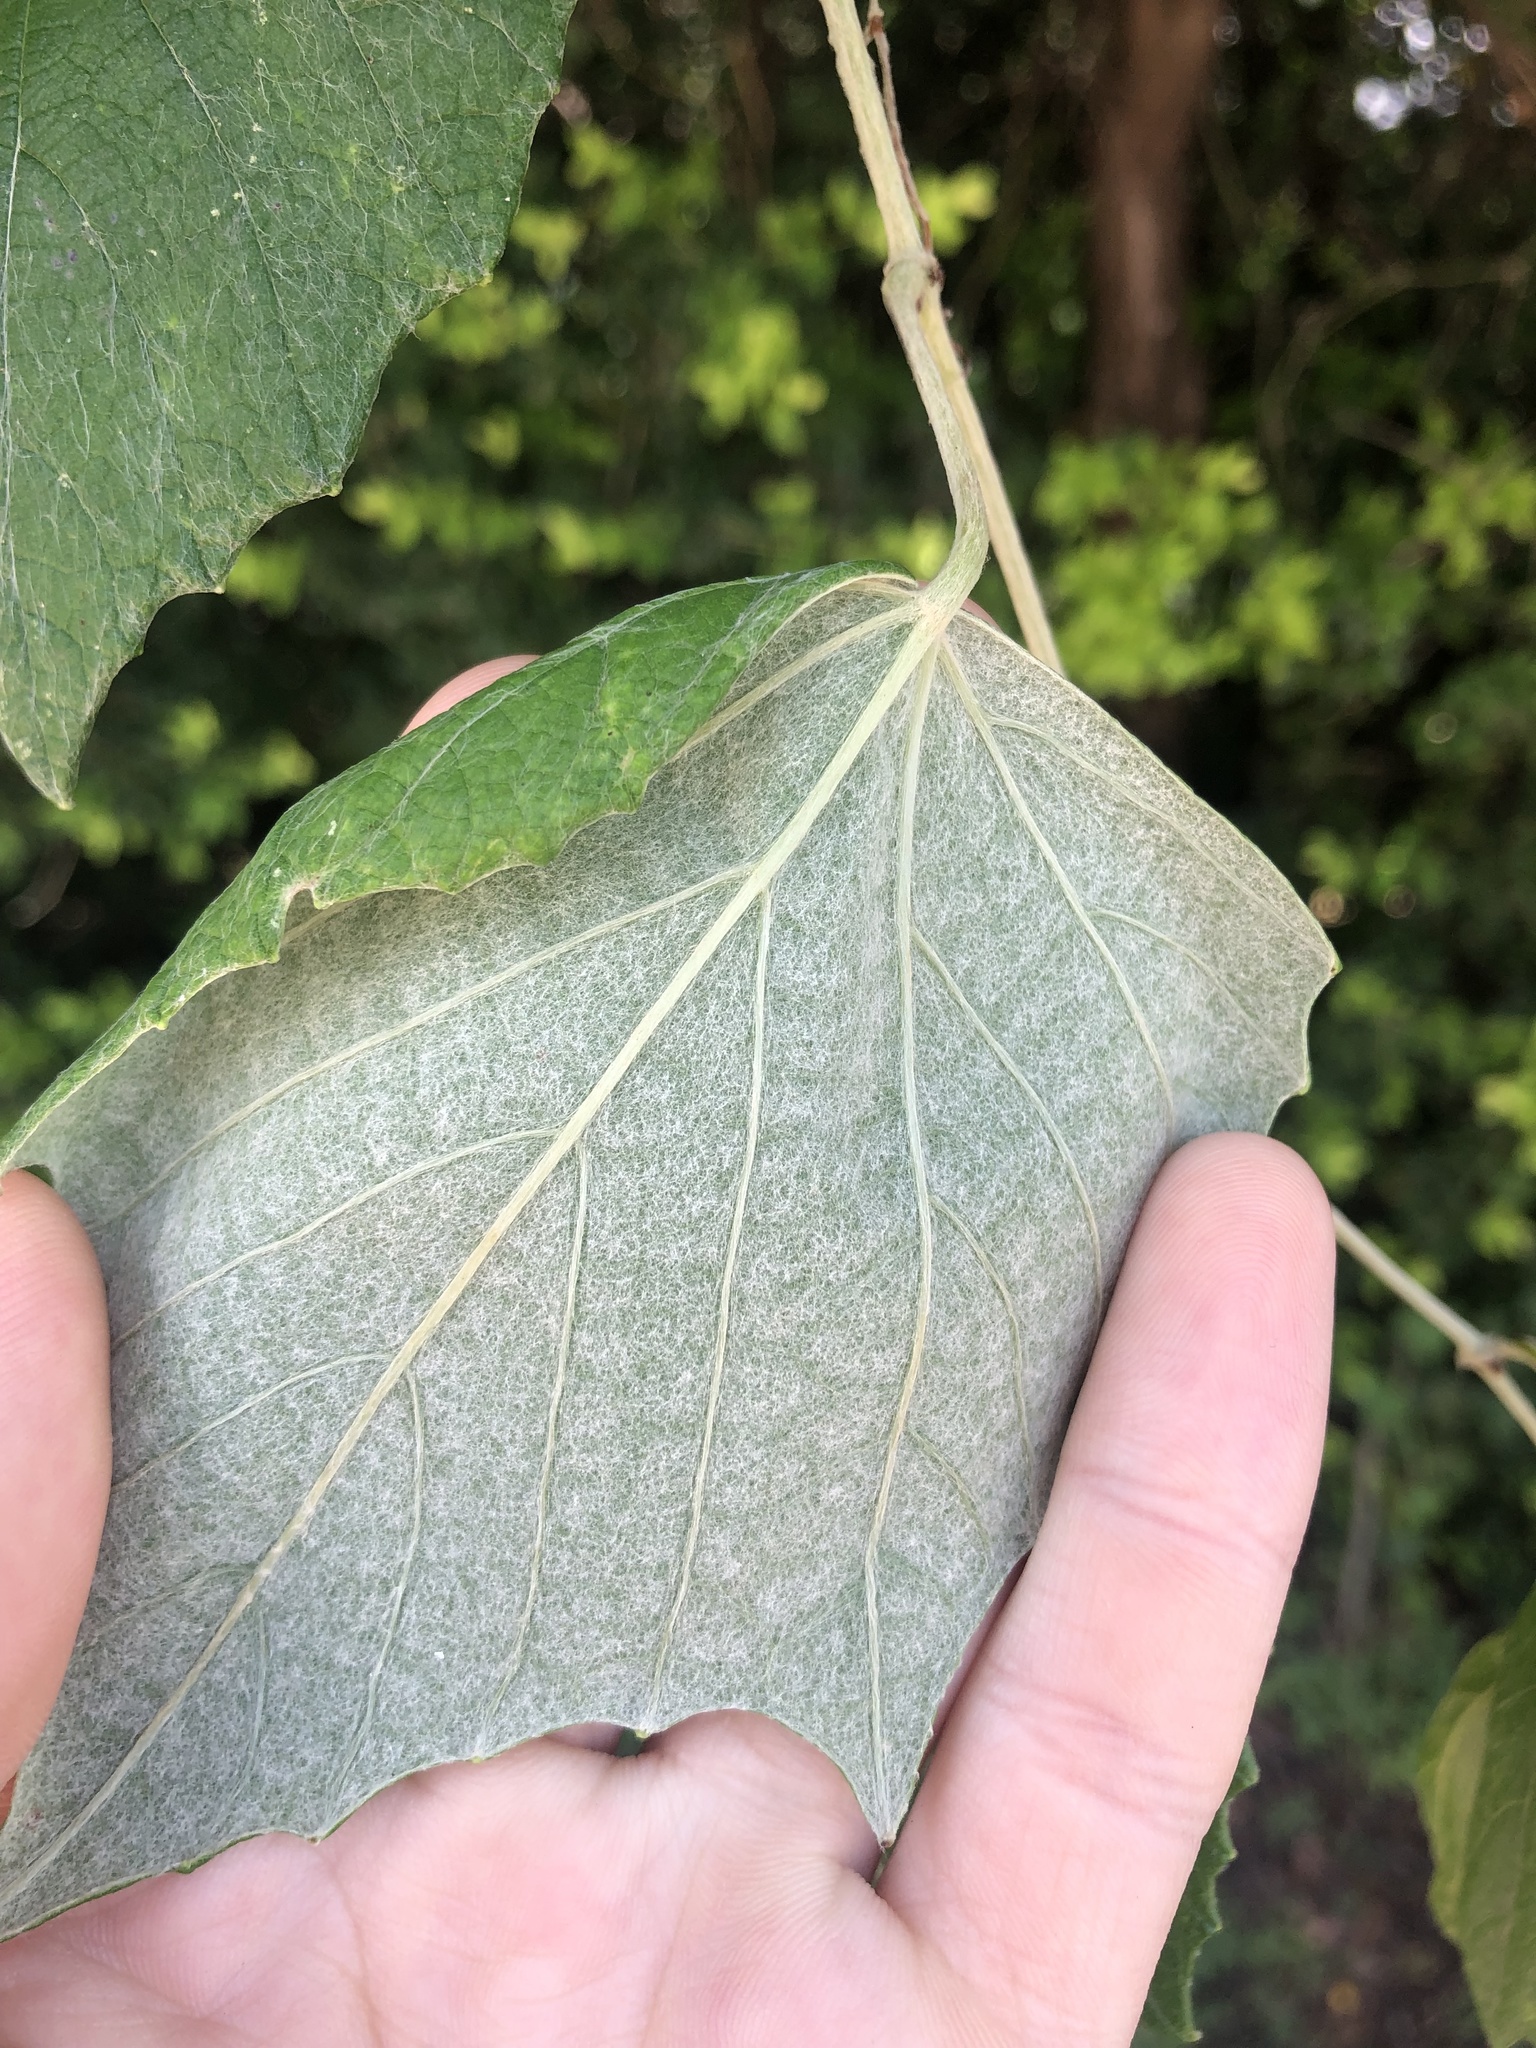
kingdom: Plantae
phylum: Tracheophyta
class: Magnoliopsida
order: Vitales
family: Vitaceae
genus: Vitis
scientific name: Vitis mustangensis
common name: Mustang grape
